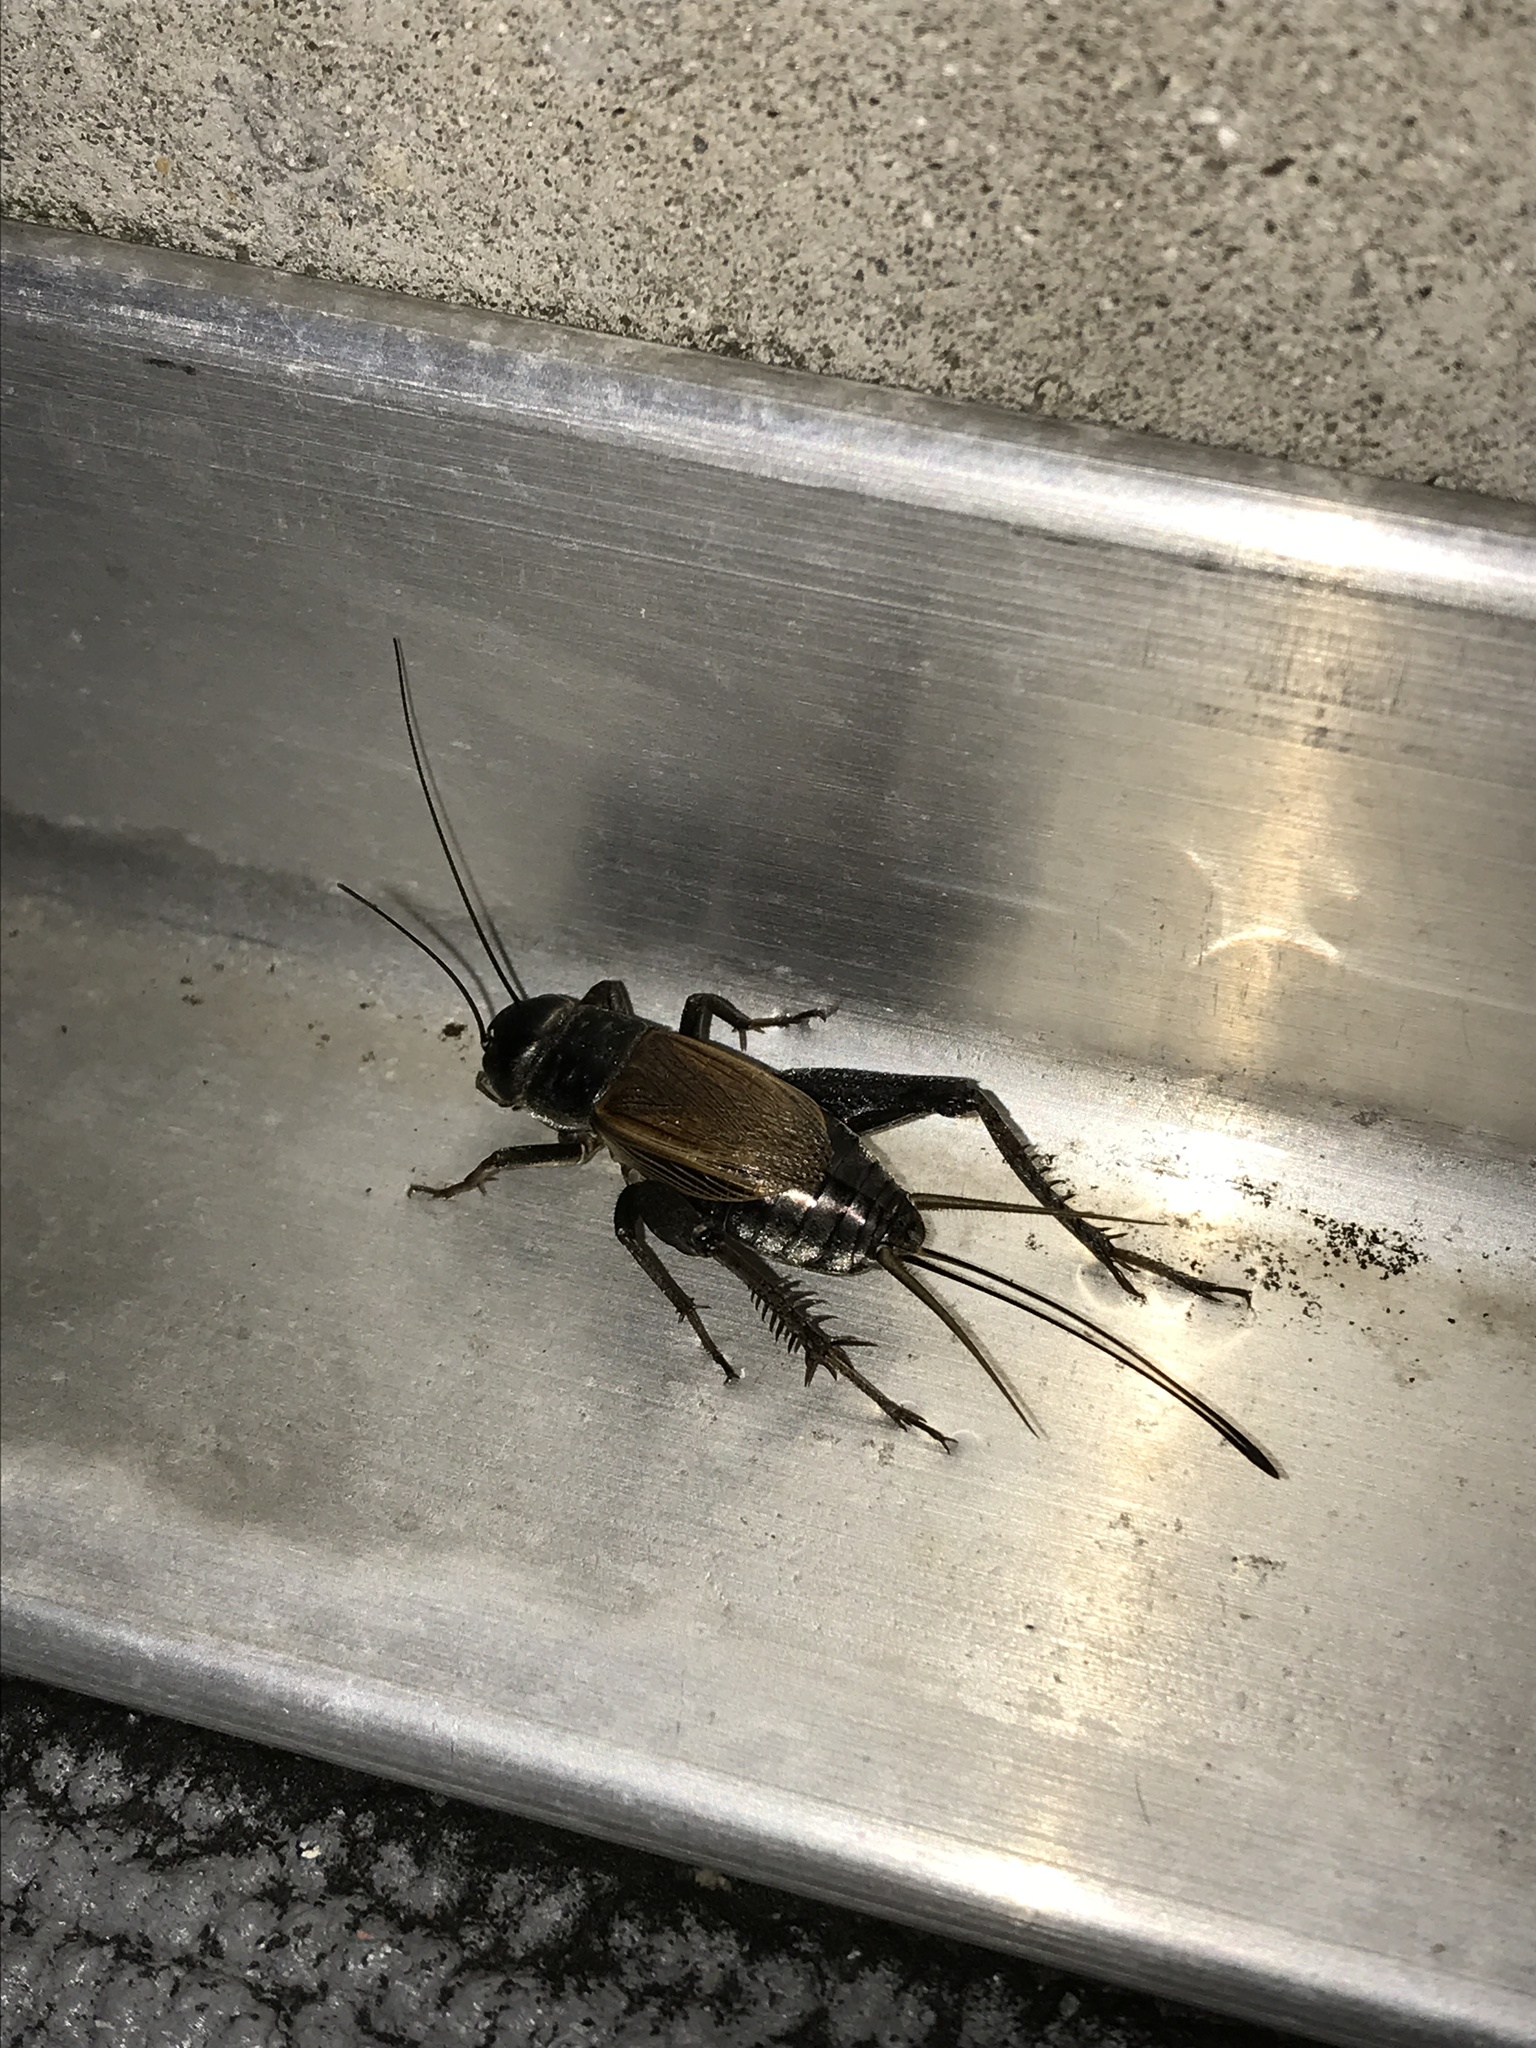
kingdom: Animalia
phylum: Arthropoda
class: Insecta
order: Orthoptera
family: Gryllidae
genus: Gryllus
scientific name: Gryllus pennsylvanicus
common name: Fall field cricket
